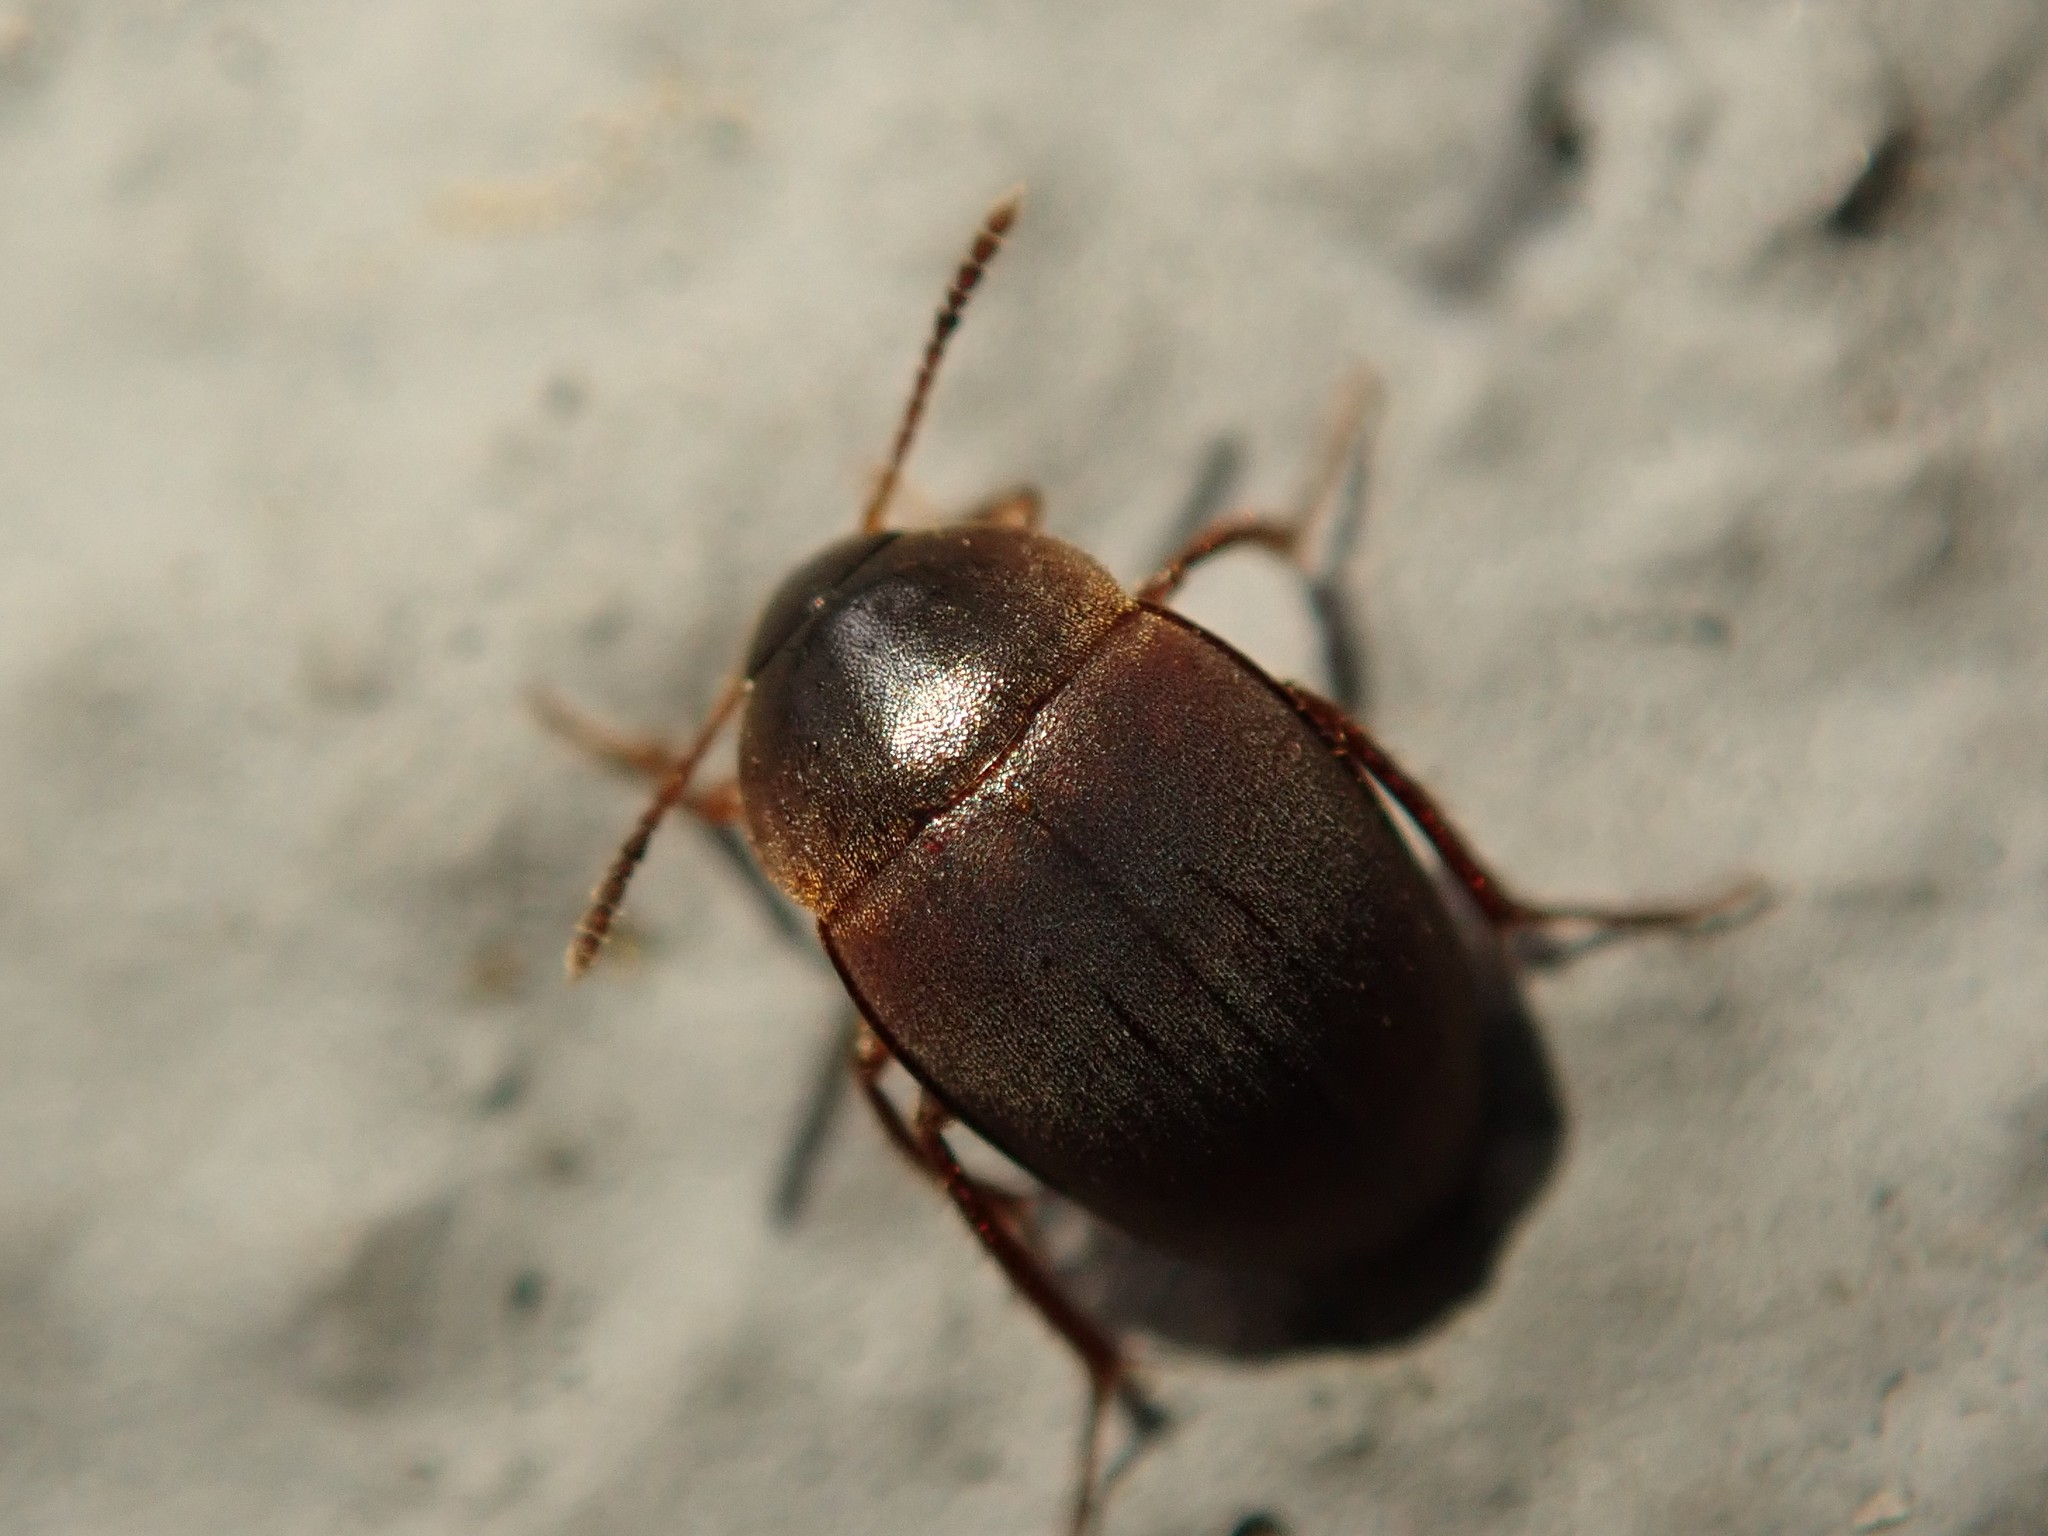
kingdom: Animalia
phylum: Arthropoda
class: Insecta
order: Coleoptera
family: Leiodidae
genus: Catops
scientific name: Catops fuscus
